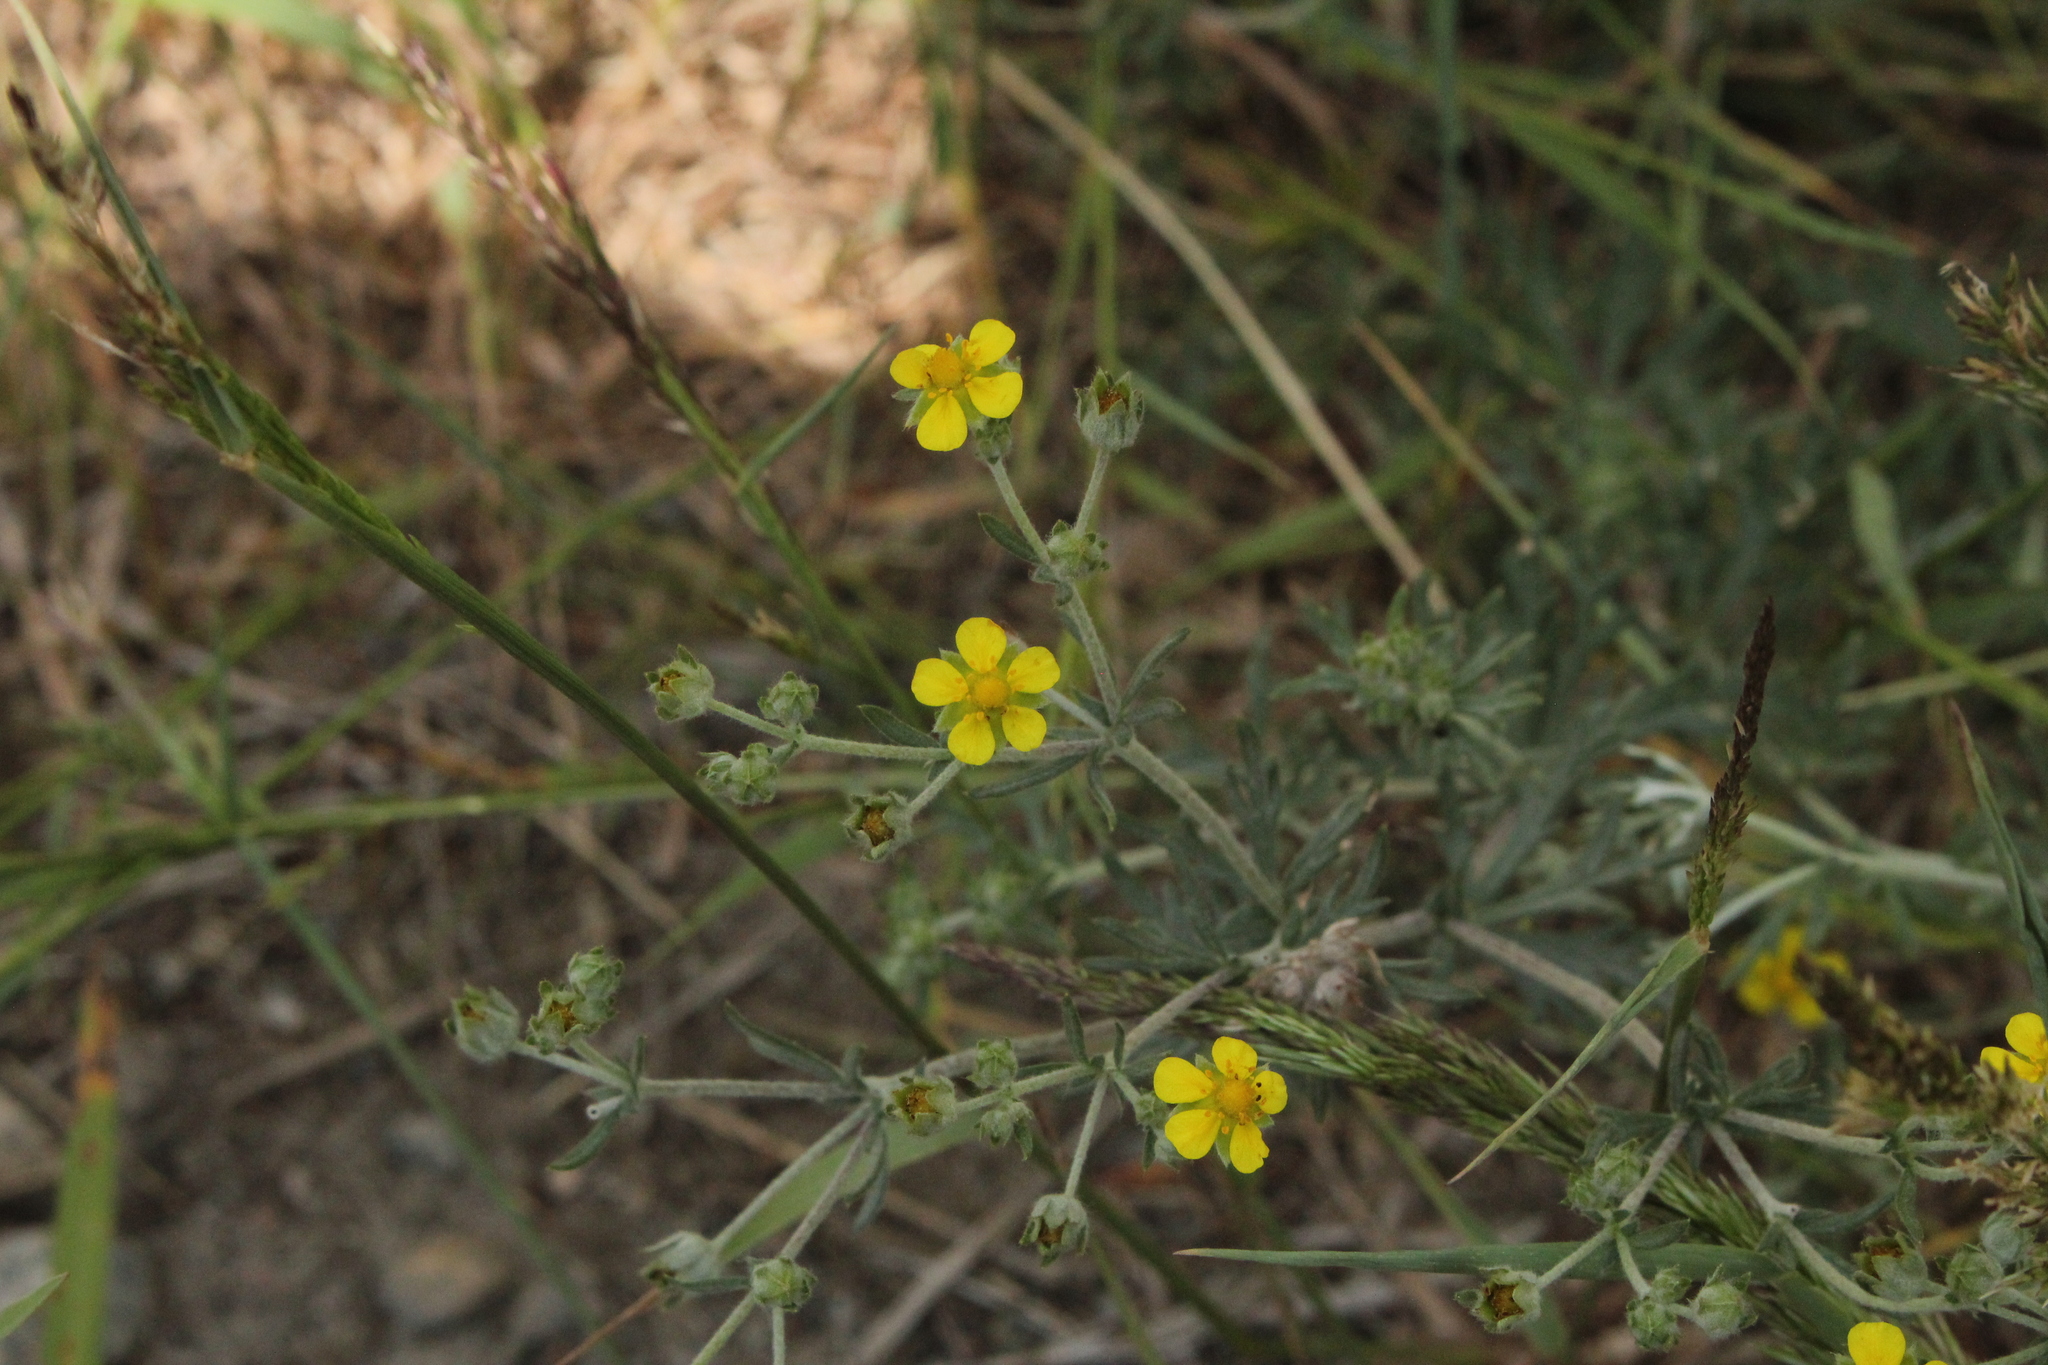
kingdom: Plantae
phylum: Tracheophyta
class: Magnoliopsida
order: Rosales
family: Rosaceae
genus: Potentilla
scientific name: Potentilla argentea
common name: Hoary cinquefoil
